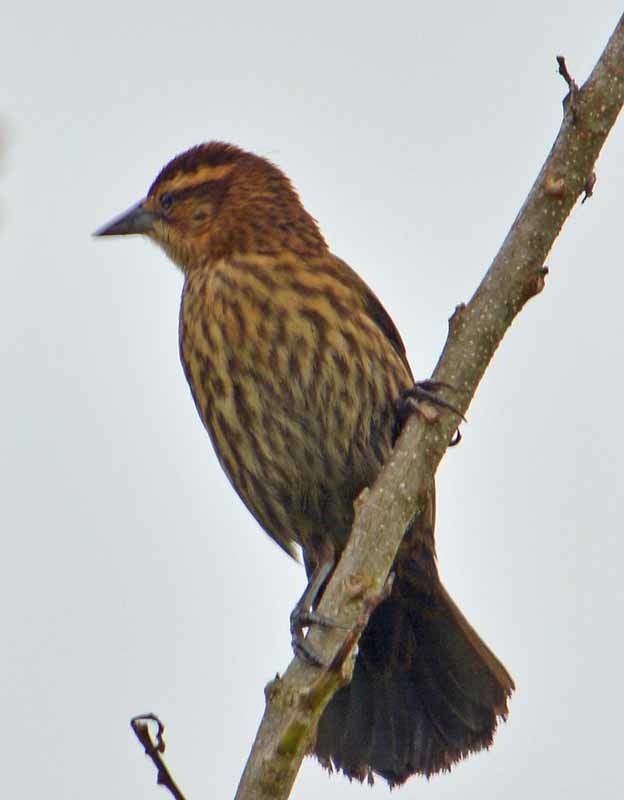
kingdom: Animalia
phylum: Chordata
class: Aves
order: Passeriformes
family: Icteridae
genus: Agelaius
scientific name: Agelaius phoeniceus
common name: Red-winged blackbird
